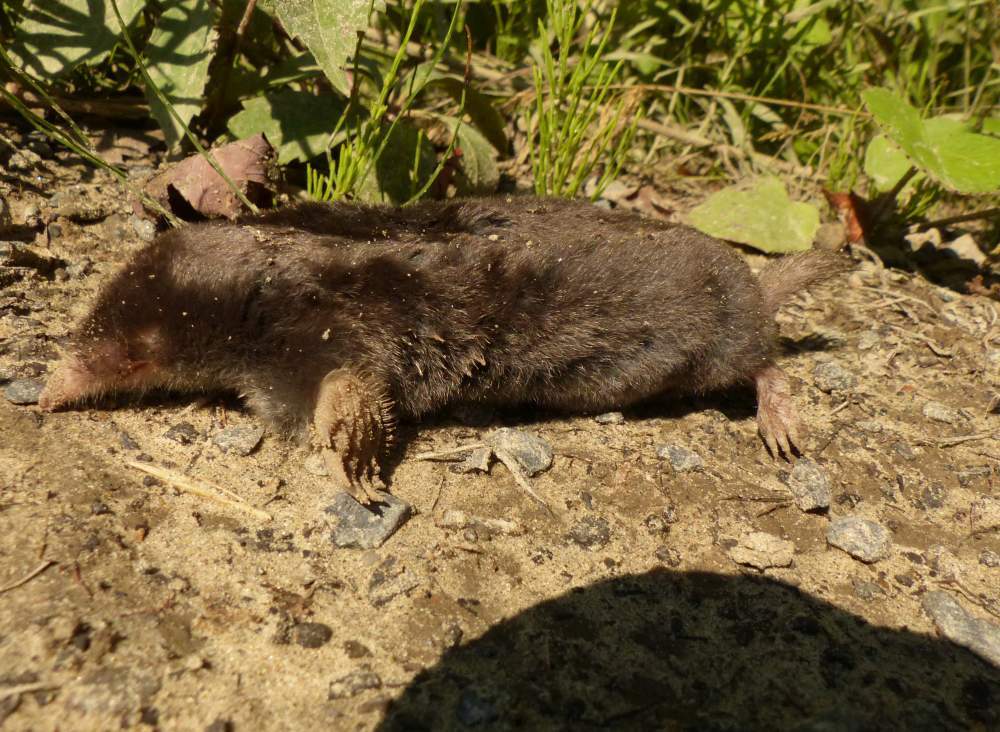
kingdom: Animalia
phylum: Chordata
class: Mammalia
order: Soricomorpha
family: Talpidae
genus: Parascalops
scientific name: Parascalops breweri
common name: Hairy-tailed mole
